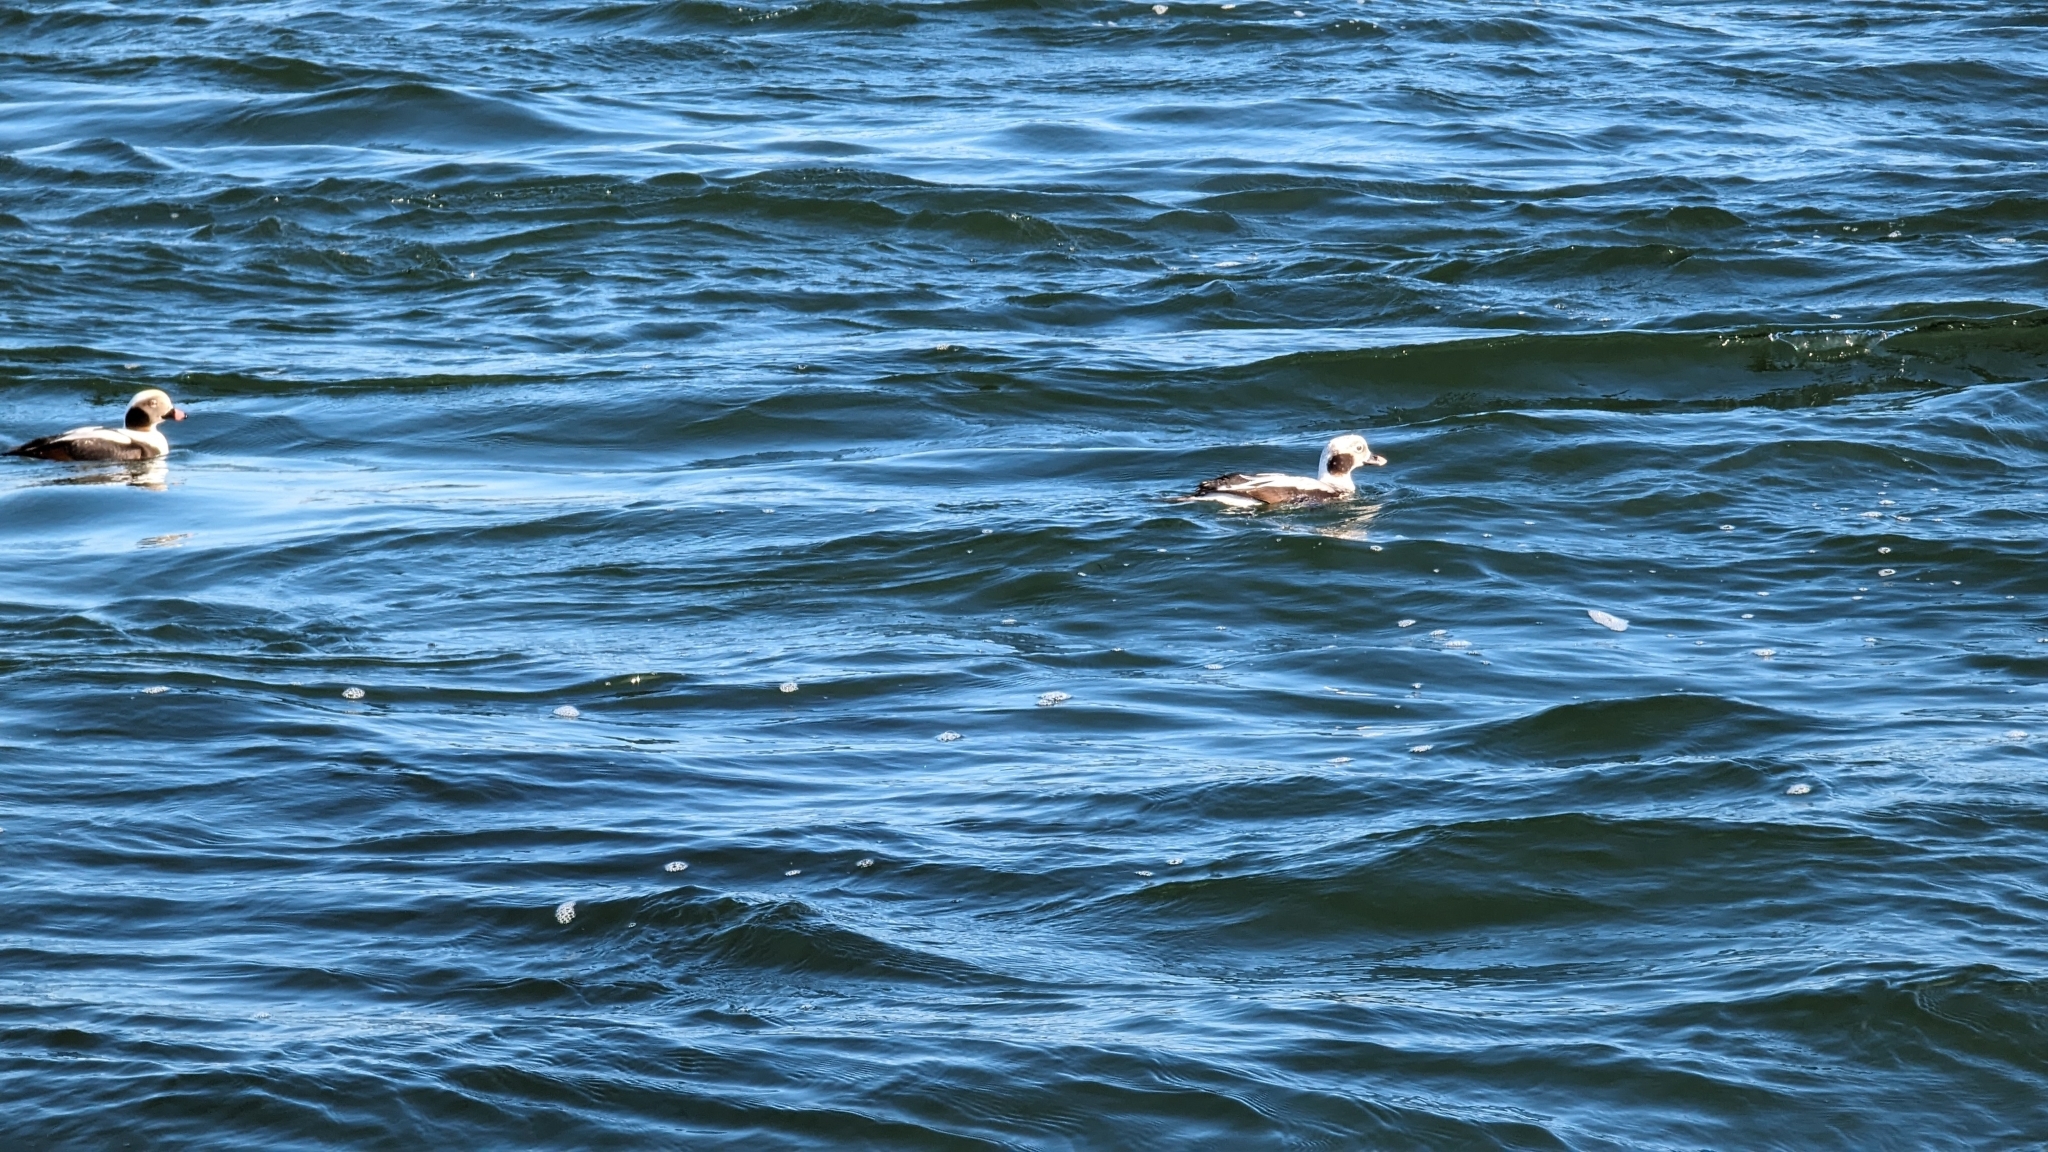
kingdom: Animalia
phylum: Chordata
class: Aves
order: Anseriformes
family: Anatidae
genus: Clangula
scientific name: Clangula hyemalis
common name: Long-tailed duck
